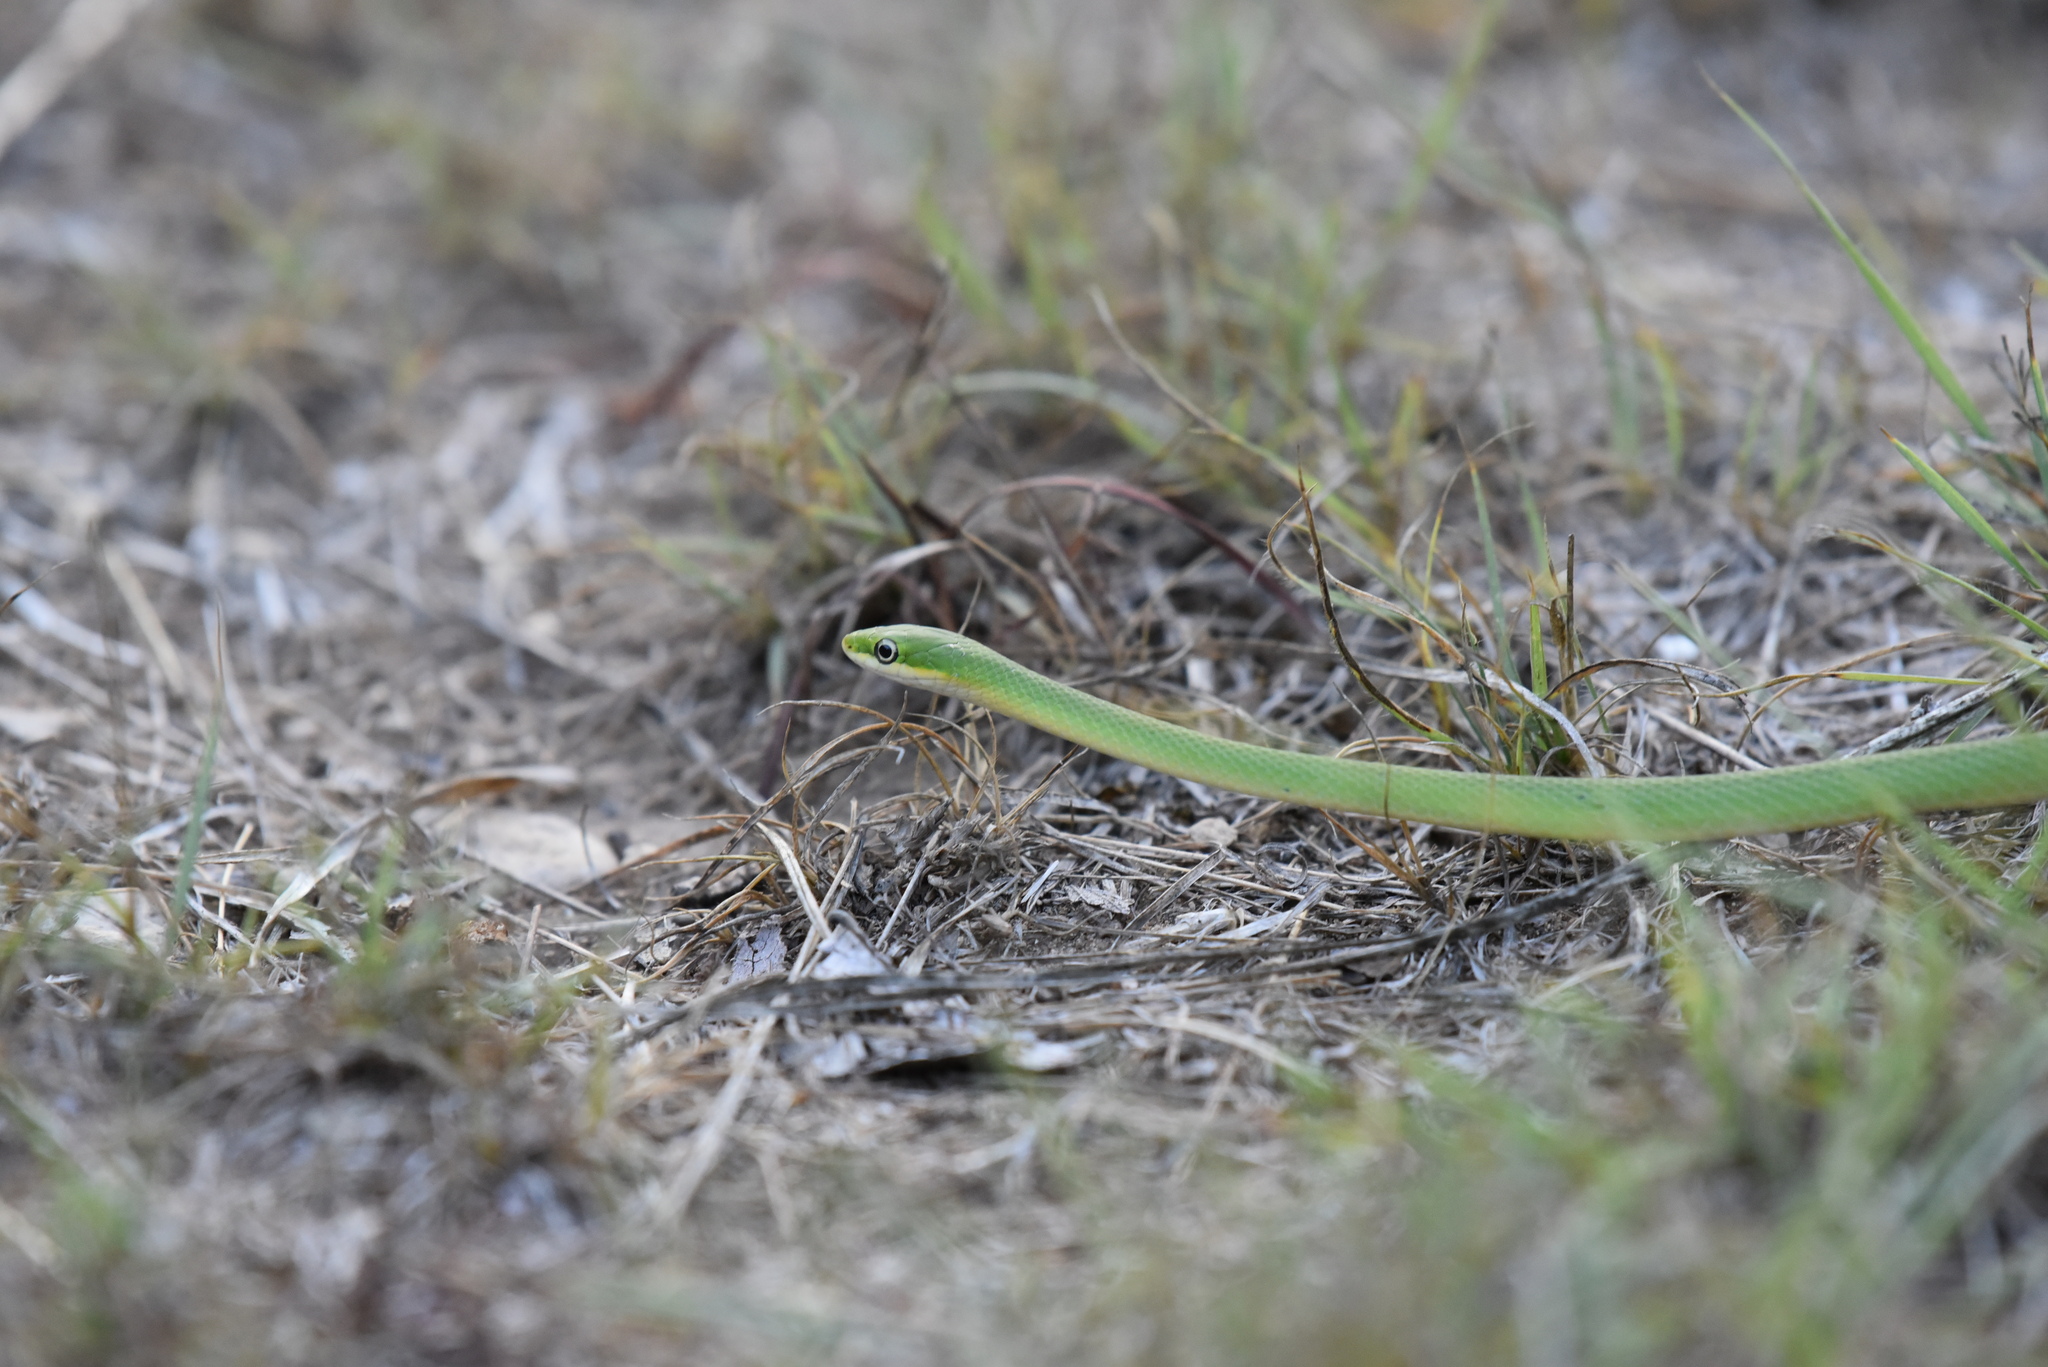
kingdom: Animalia
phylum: Chordata
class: Squamata
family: Colubridae
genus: Opheodrys
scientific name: Opheodrys aestivus
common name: Rough greensnake
